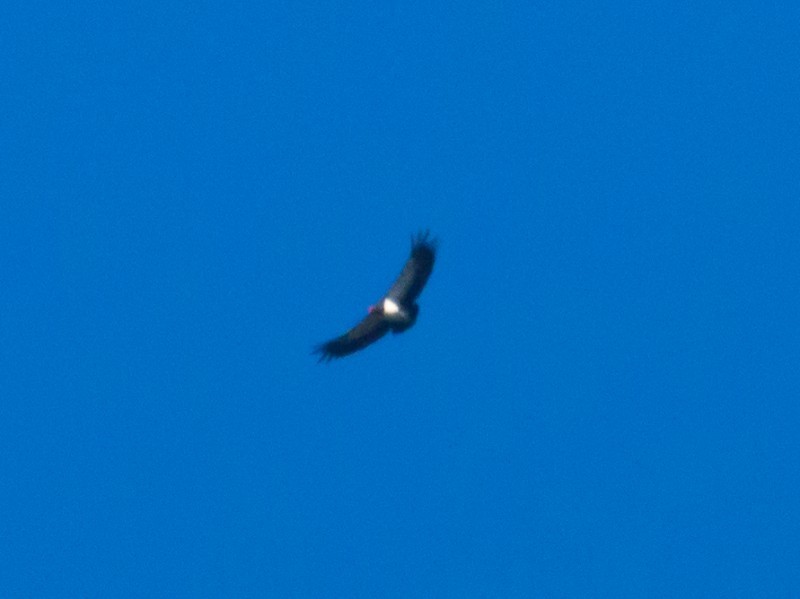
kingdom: Animalia
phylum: Chordata
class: Aves
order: Accipitriformes
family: Cathartidae
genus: Sarcoramphus
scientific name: Sarcoramphus papa
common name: King vulture
